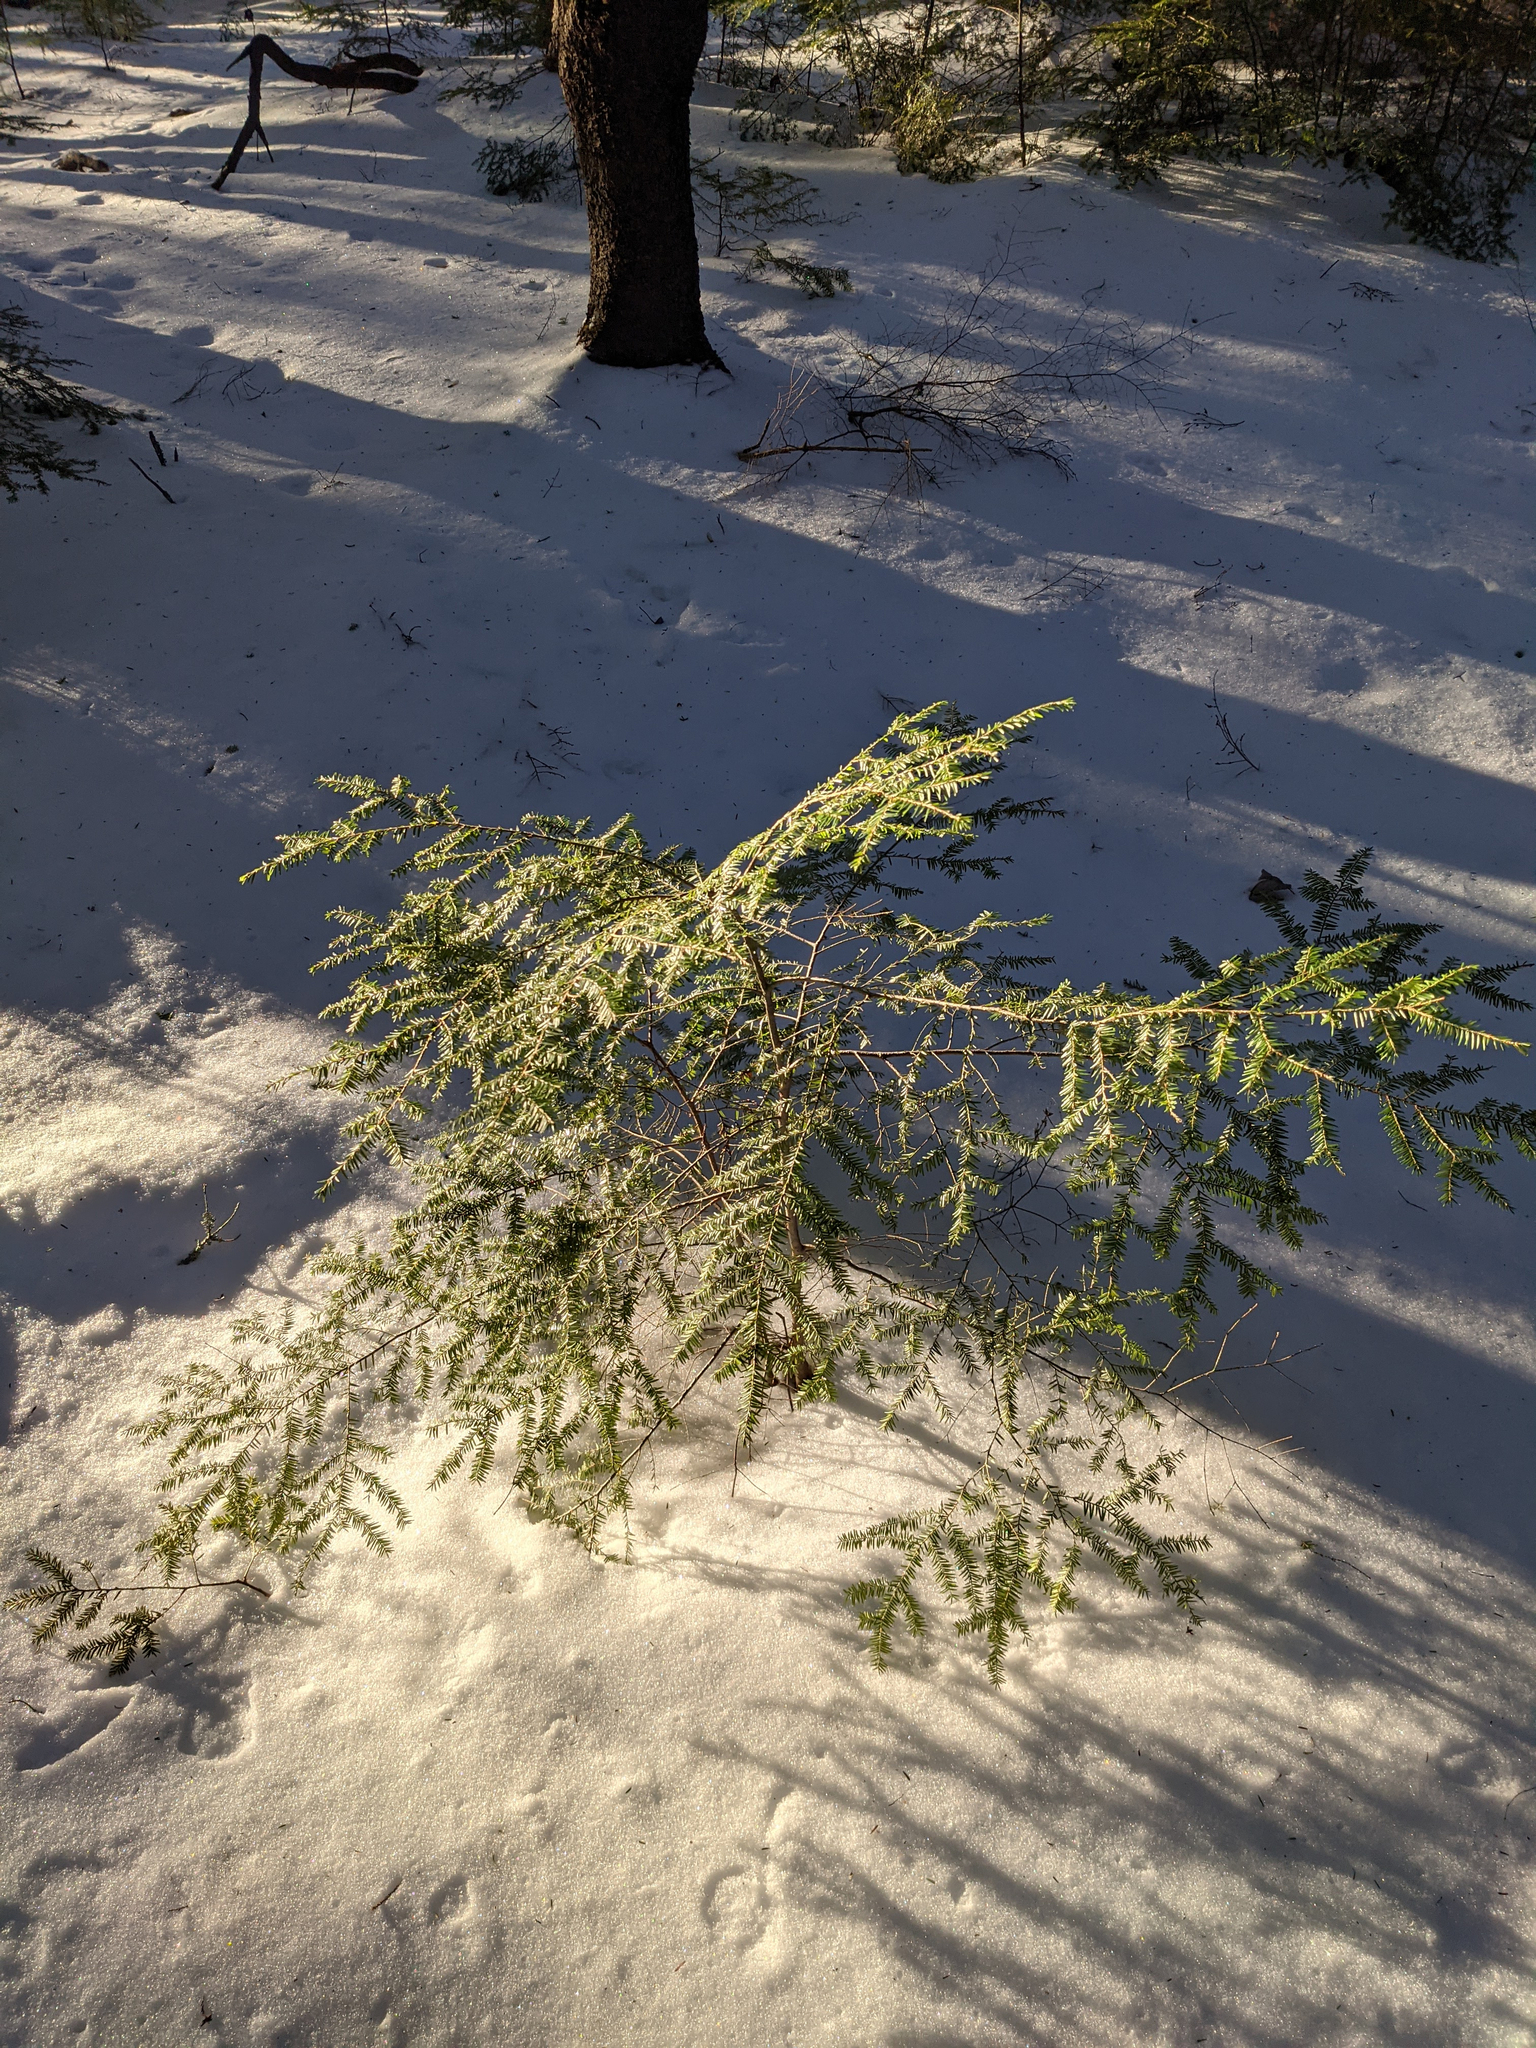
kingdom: Plantae
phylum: Tracheophyta
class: Pinopsida
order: Pinales
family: Pinaceae
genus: Tsuga
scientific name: Tsuga canadensis
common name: Eastern hemlock
